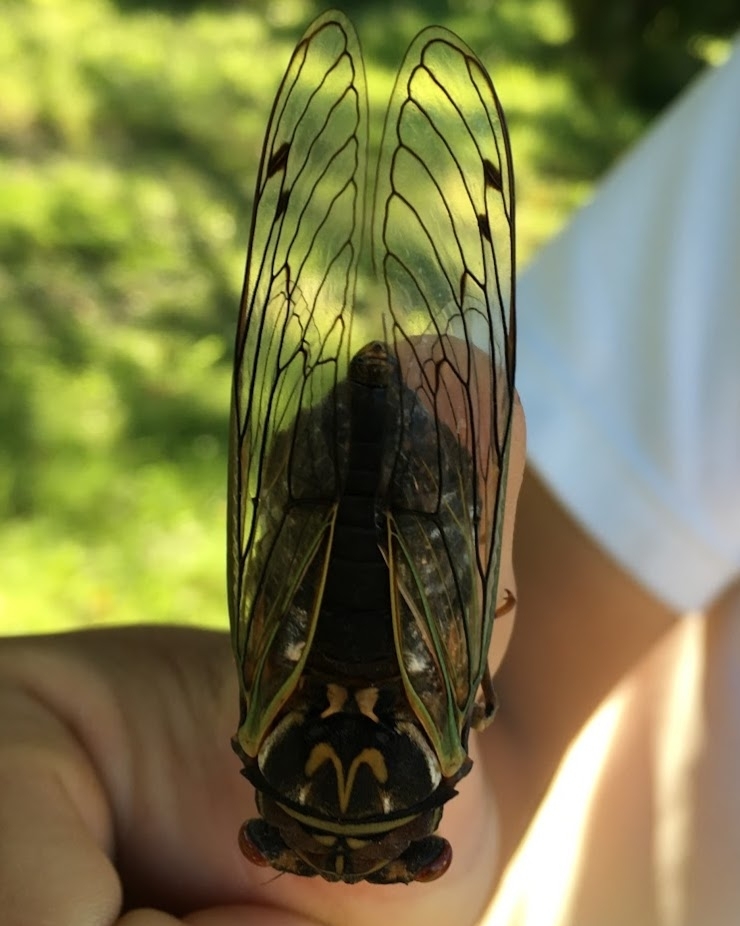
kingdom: Animalia
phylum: Arthropoda
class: Insecta
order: Hemiptera
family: Cicadidae
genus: Auritibicen
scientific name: Auritibicen japonicus
